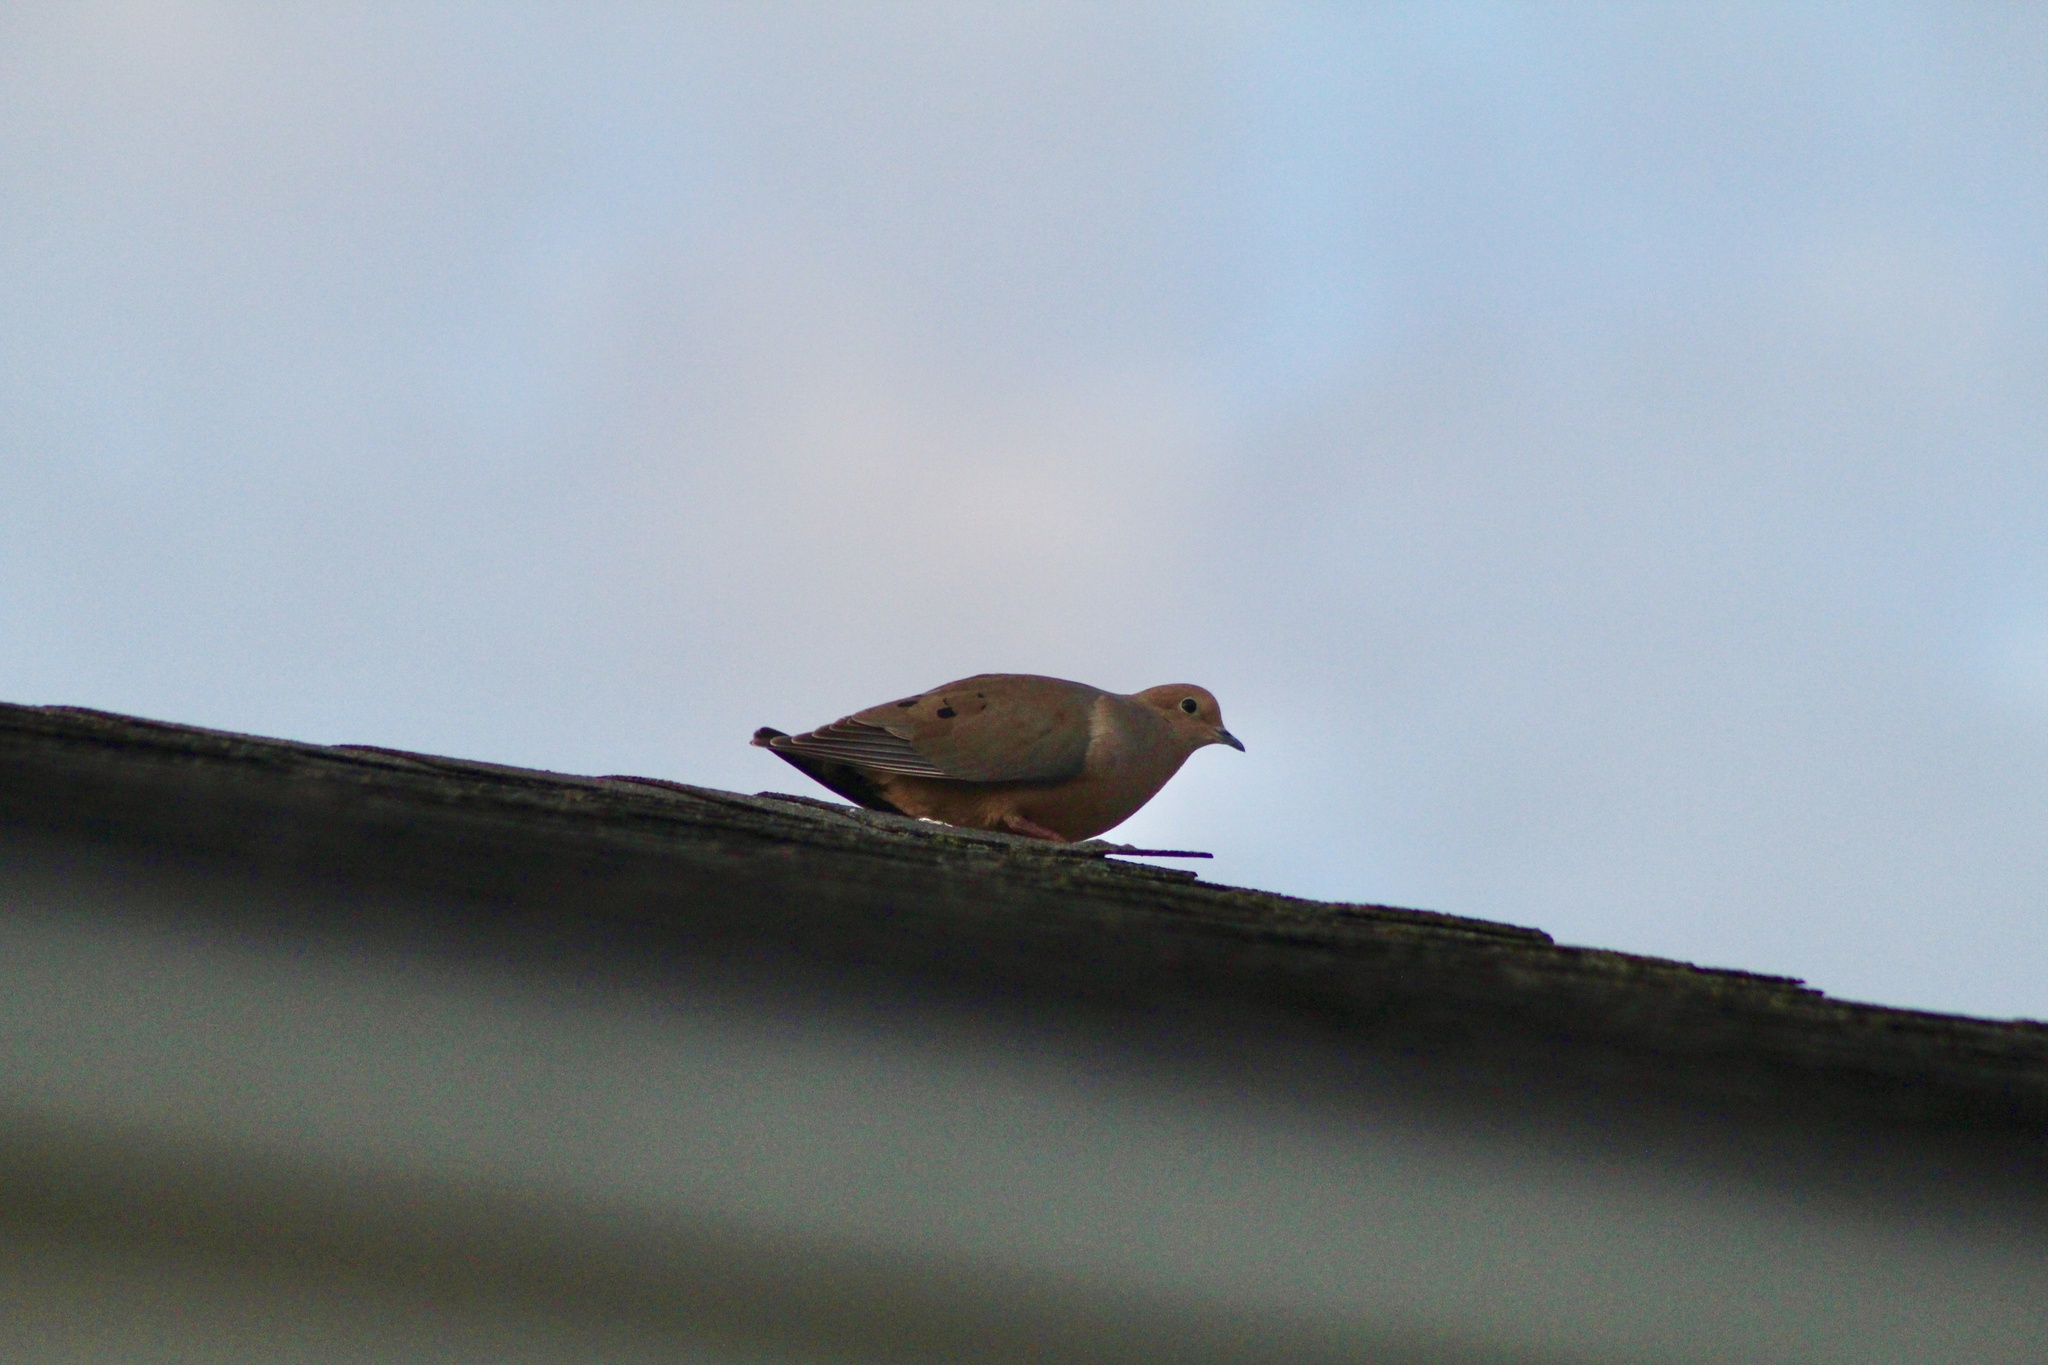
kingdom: Animalia
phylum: Chordata
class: Aves
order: Columbiformes
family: Columbidae
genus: Zenaida
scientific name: Zenaida macroura
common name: Mourning dove
